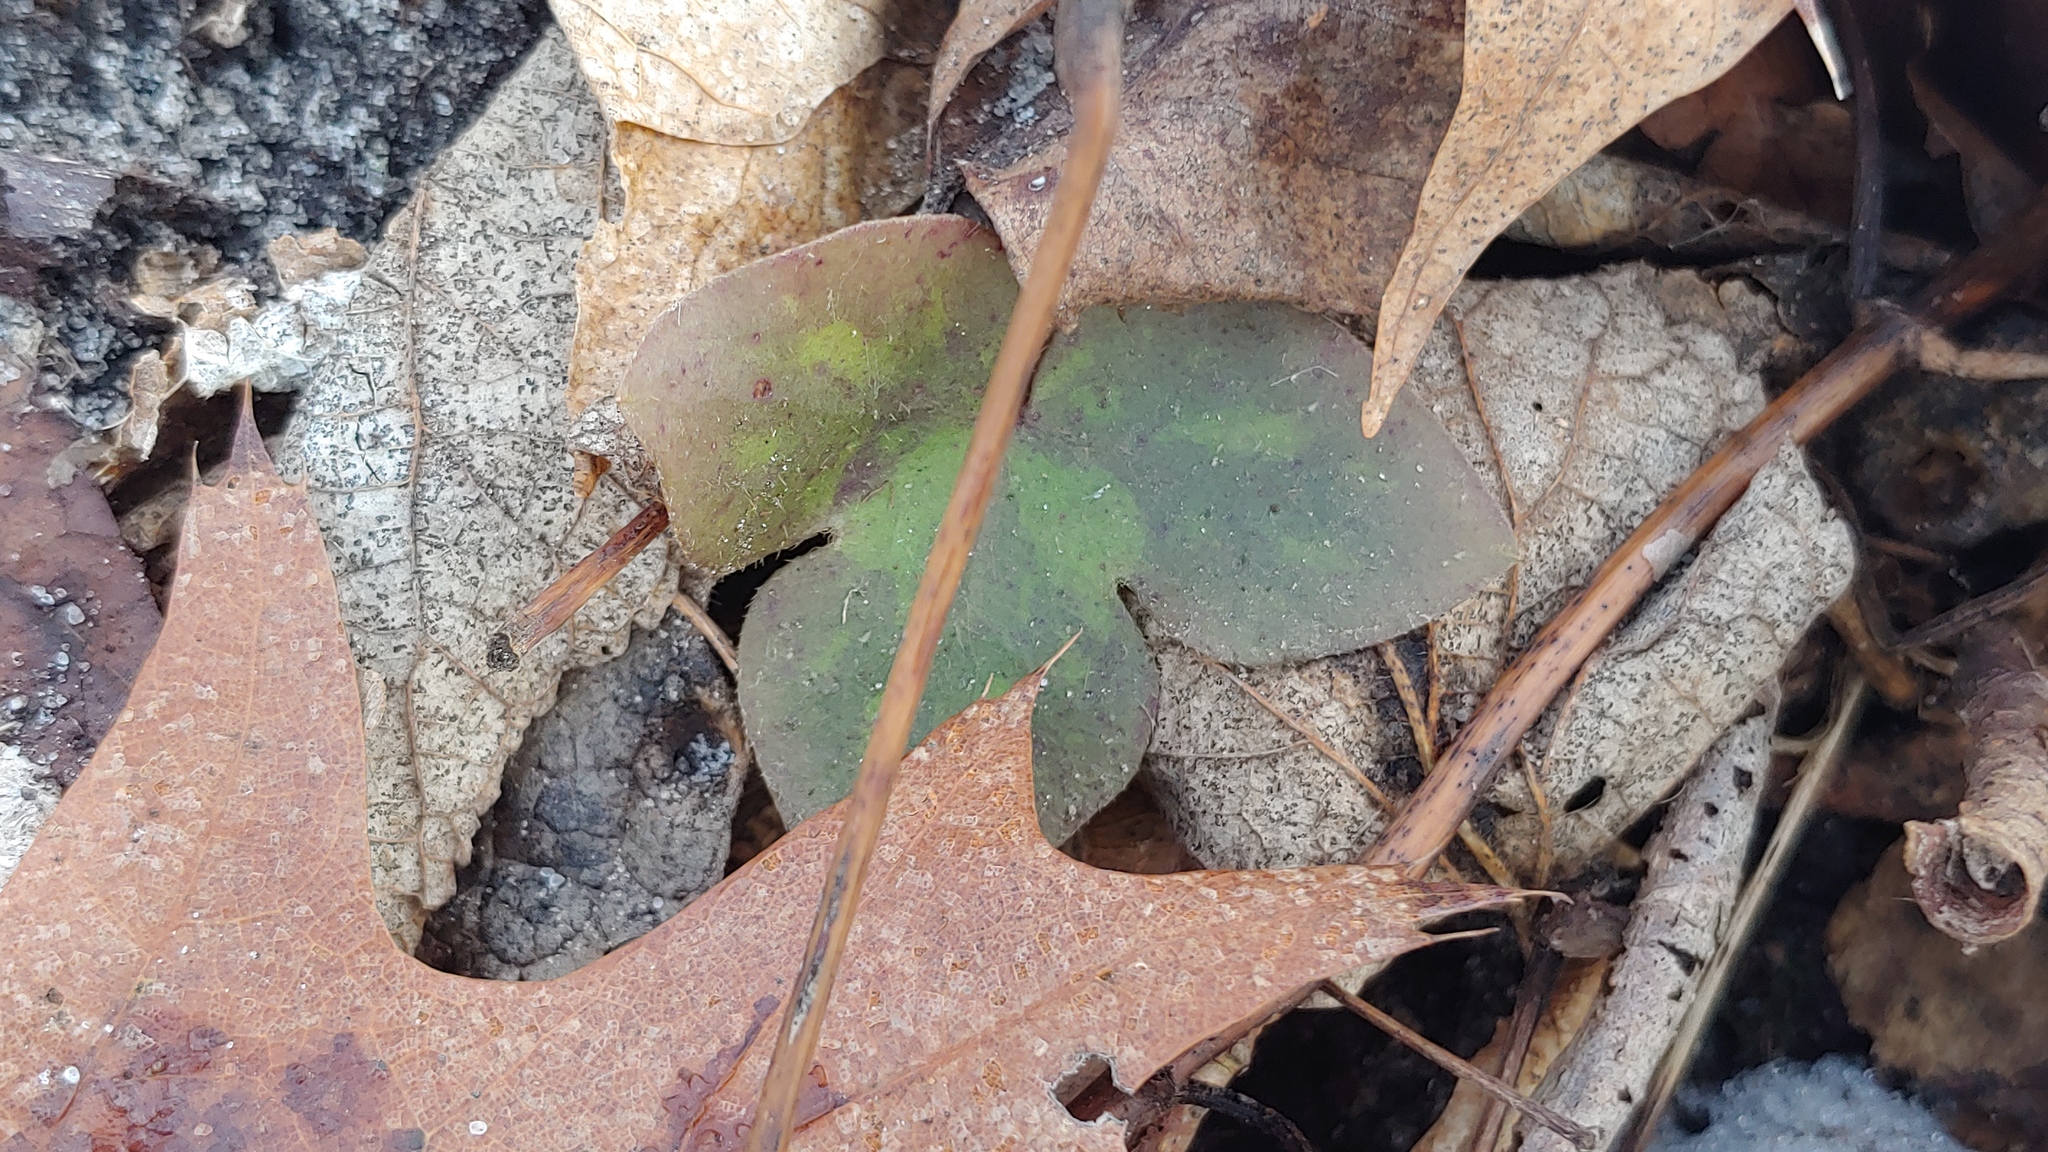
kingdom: Plantae
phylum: Tracheophyta
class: Magnoliopsida
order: Ranunculales
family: Ranunculaceae
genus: Hepatica
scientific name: Hepatica acutiloba
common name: Sharp-lobed hepatica
